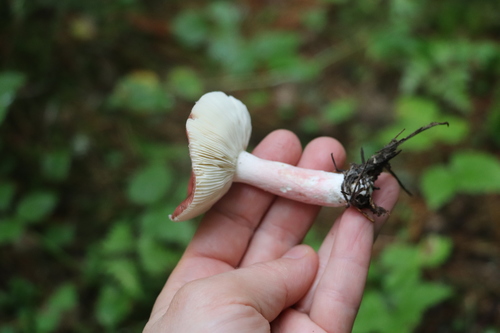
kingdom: Fungi
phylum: Basidiomycota
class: Agaricomycetes
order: Russulales
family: Russulaceae
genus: Russula
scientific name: Russula queletii
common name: Fruity brittlegill
